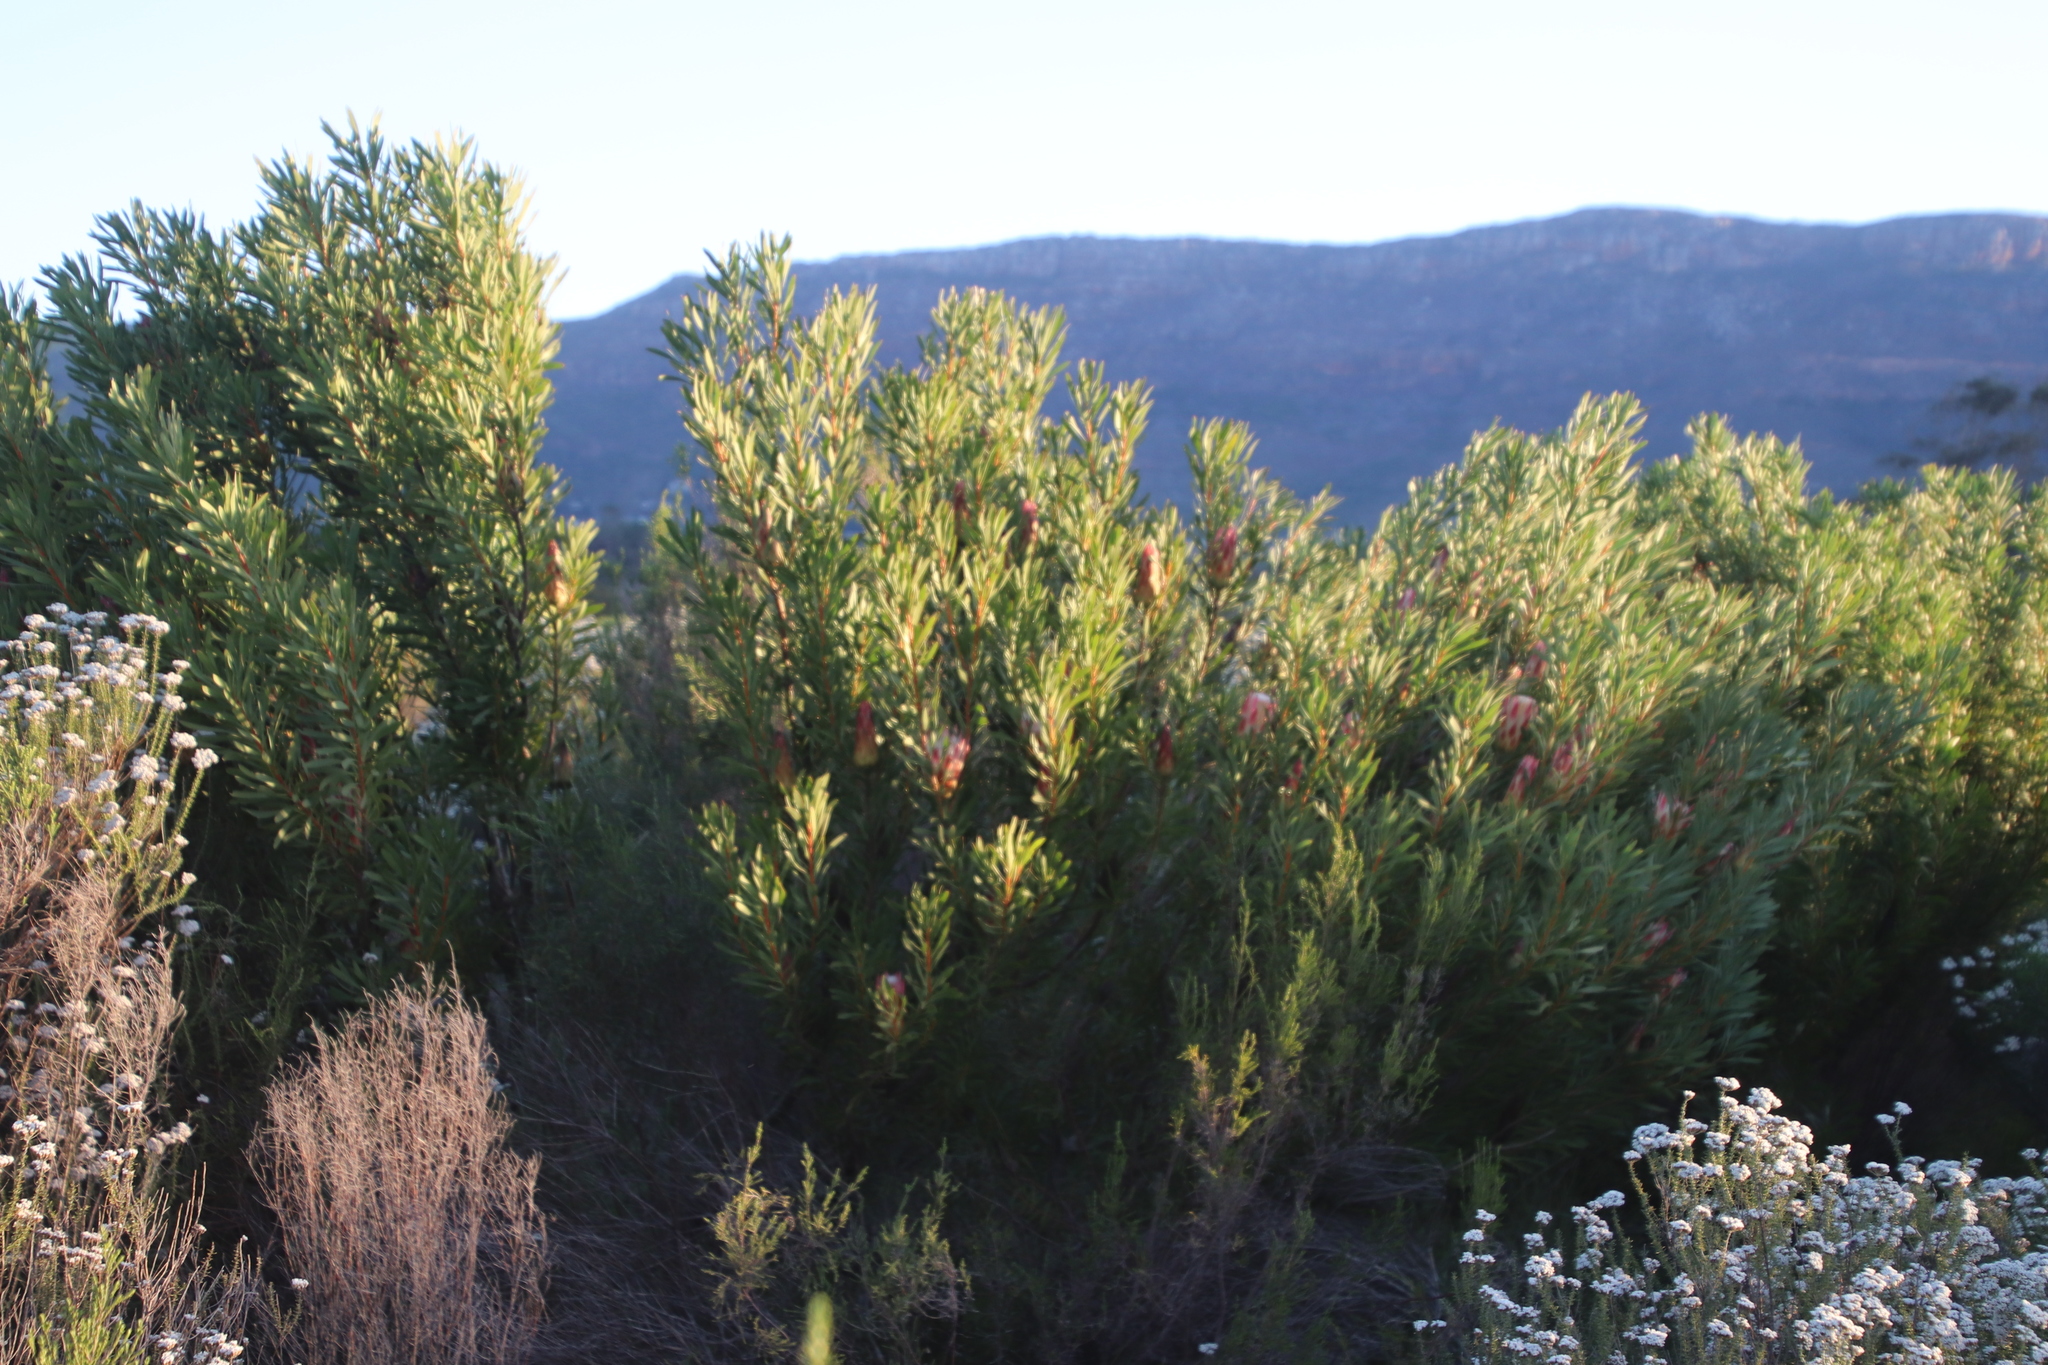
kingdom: Plantae
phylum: Tracheophyta
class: Magnoliopsida
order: Proteales
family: Proteaceae
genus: Protea
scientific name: Protea repens
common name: Sugarbush
